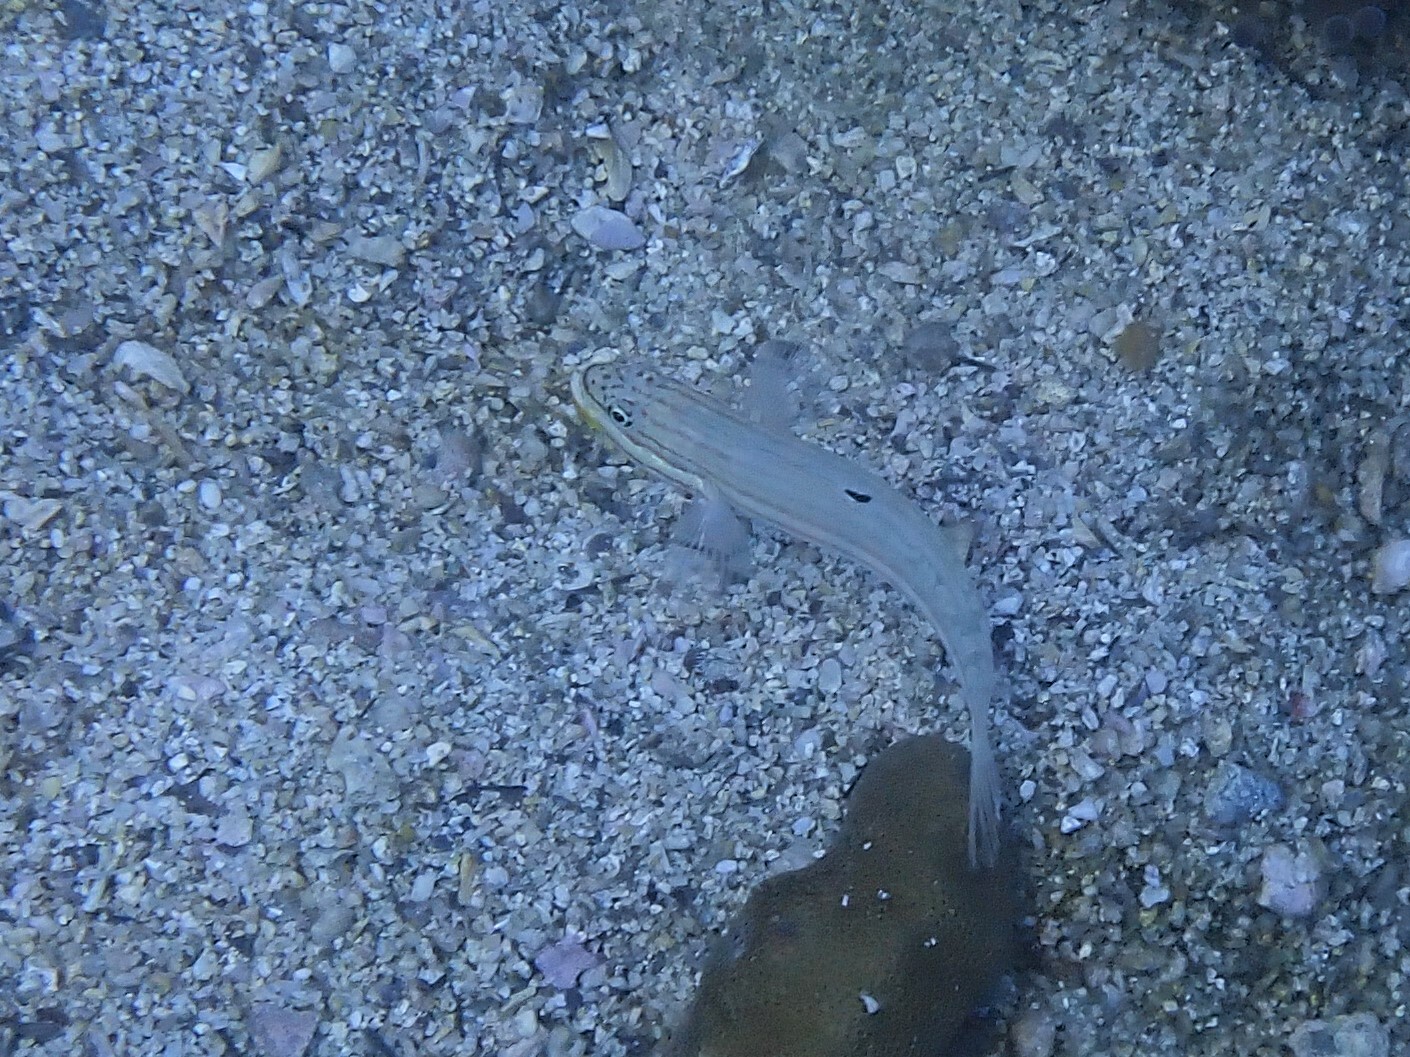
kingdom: Animalia
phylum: Chordata
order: Perciformes
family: Gobiidae
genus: Valenciennea
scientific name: Valenciennea muralis
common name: Mural goby
